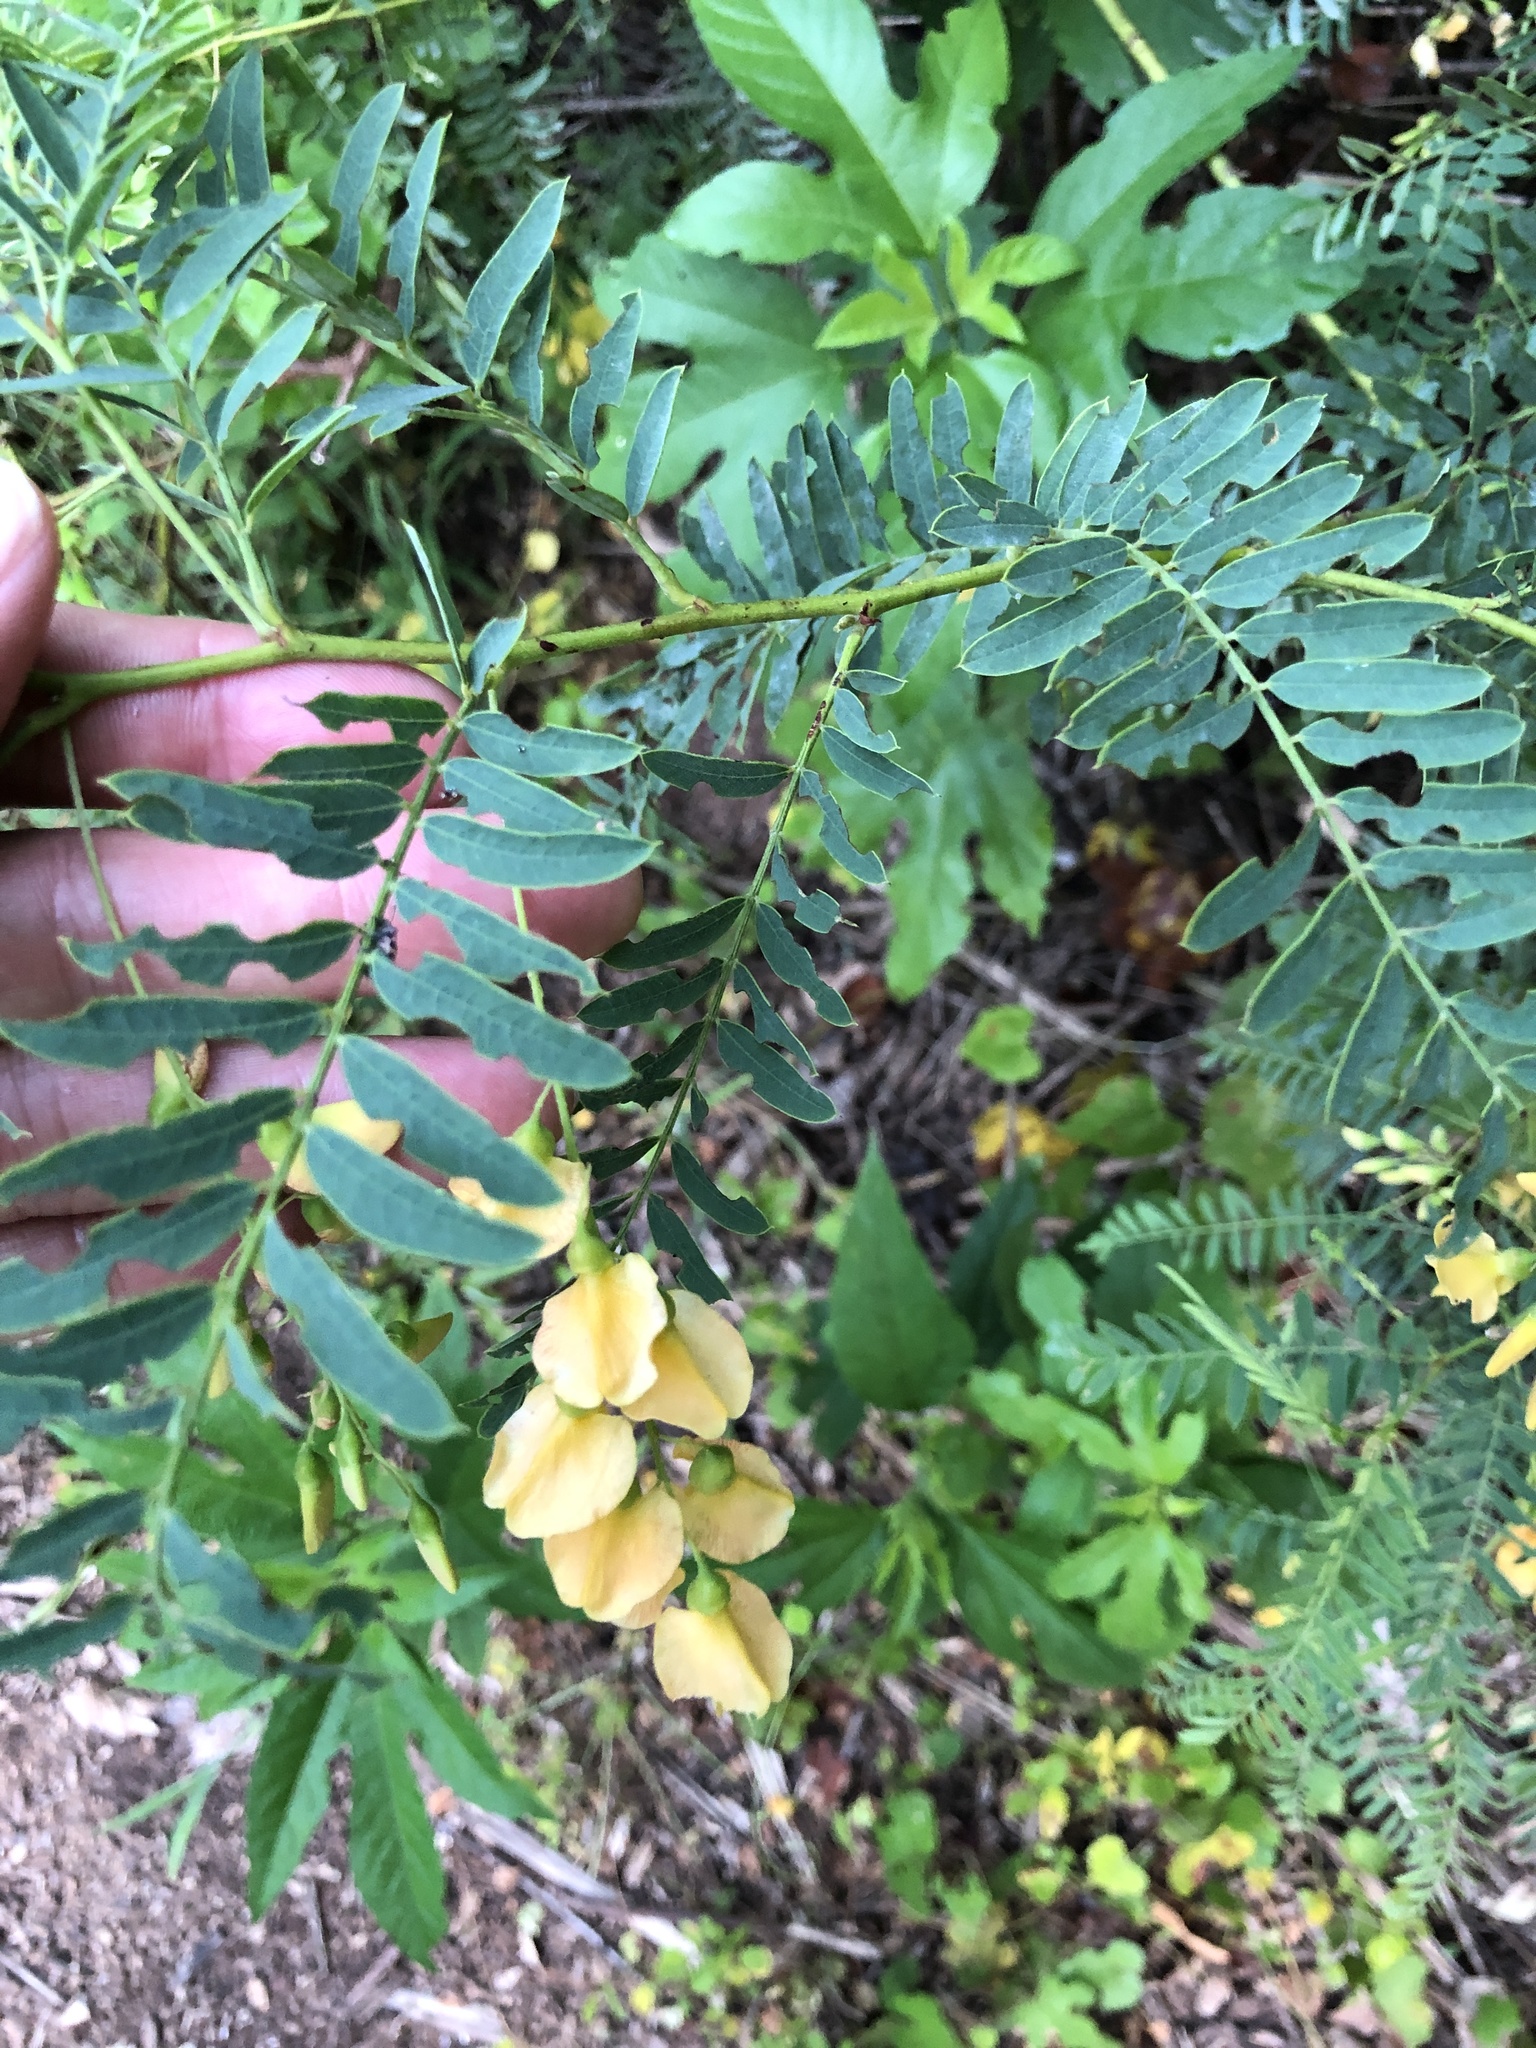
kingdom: Plantae
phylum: Tracheophyta
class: Magnoliopsida
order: Fabales
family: Fabaceae
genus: Sesbania
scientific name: Sesbania drummondii
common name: Poison-bean
